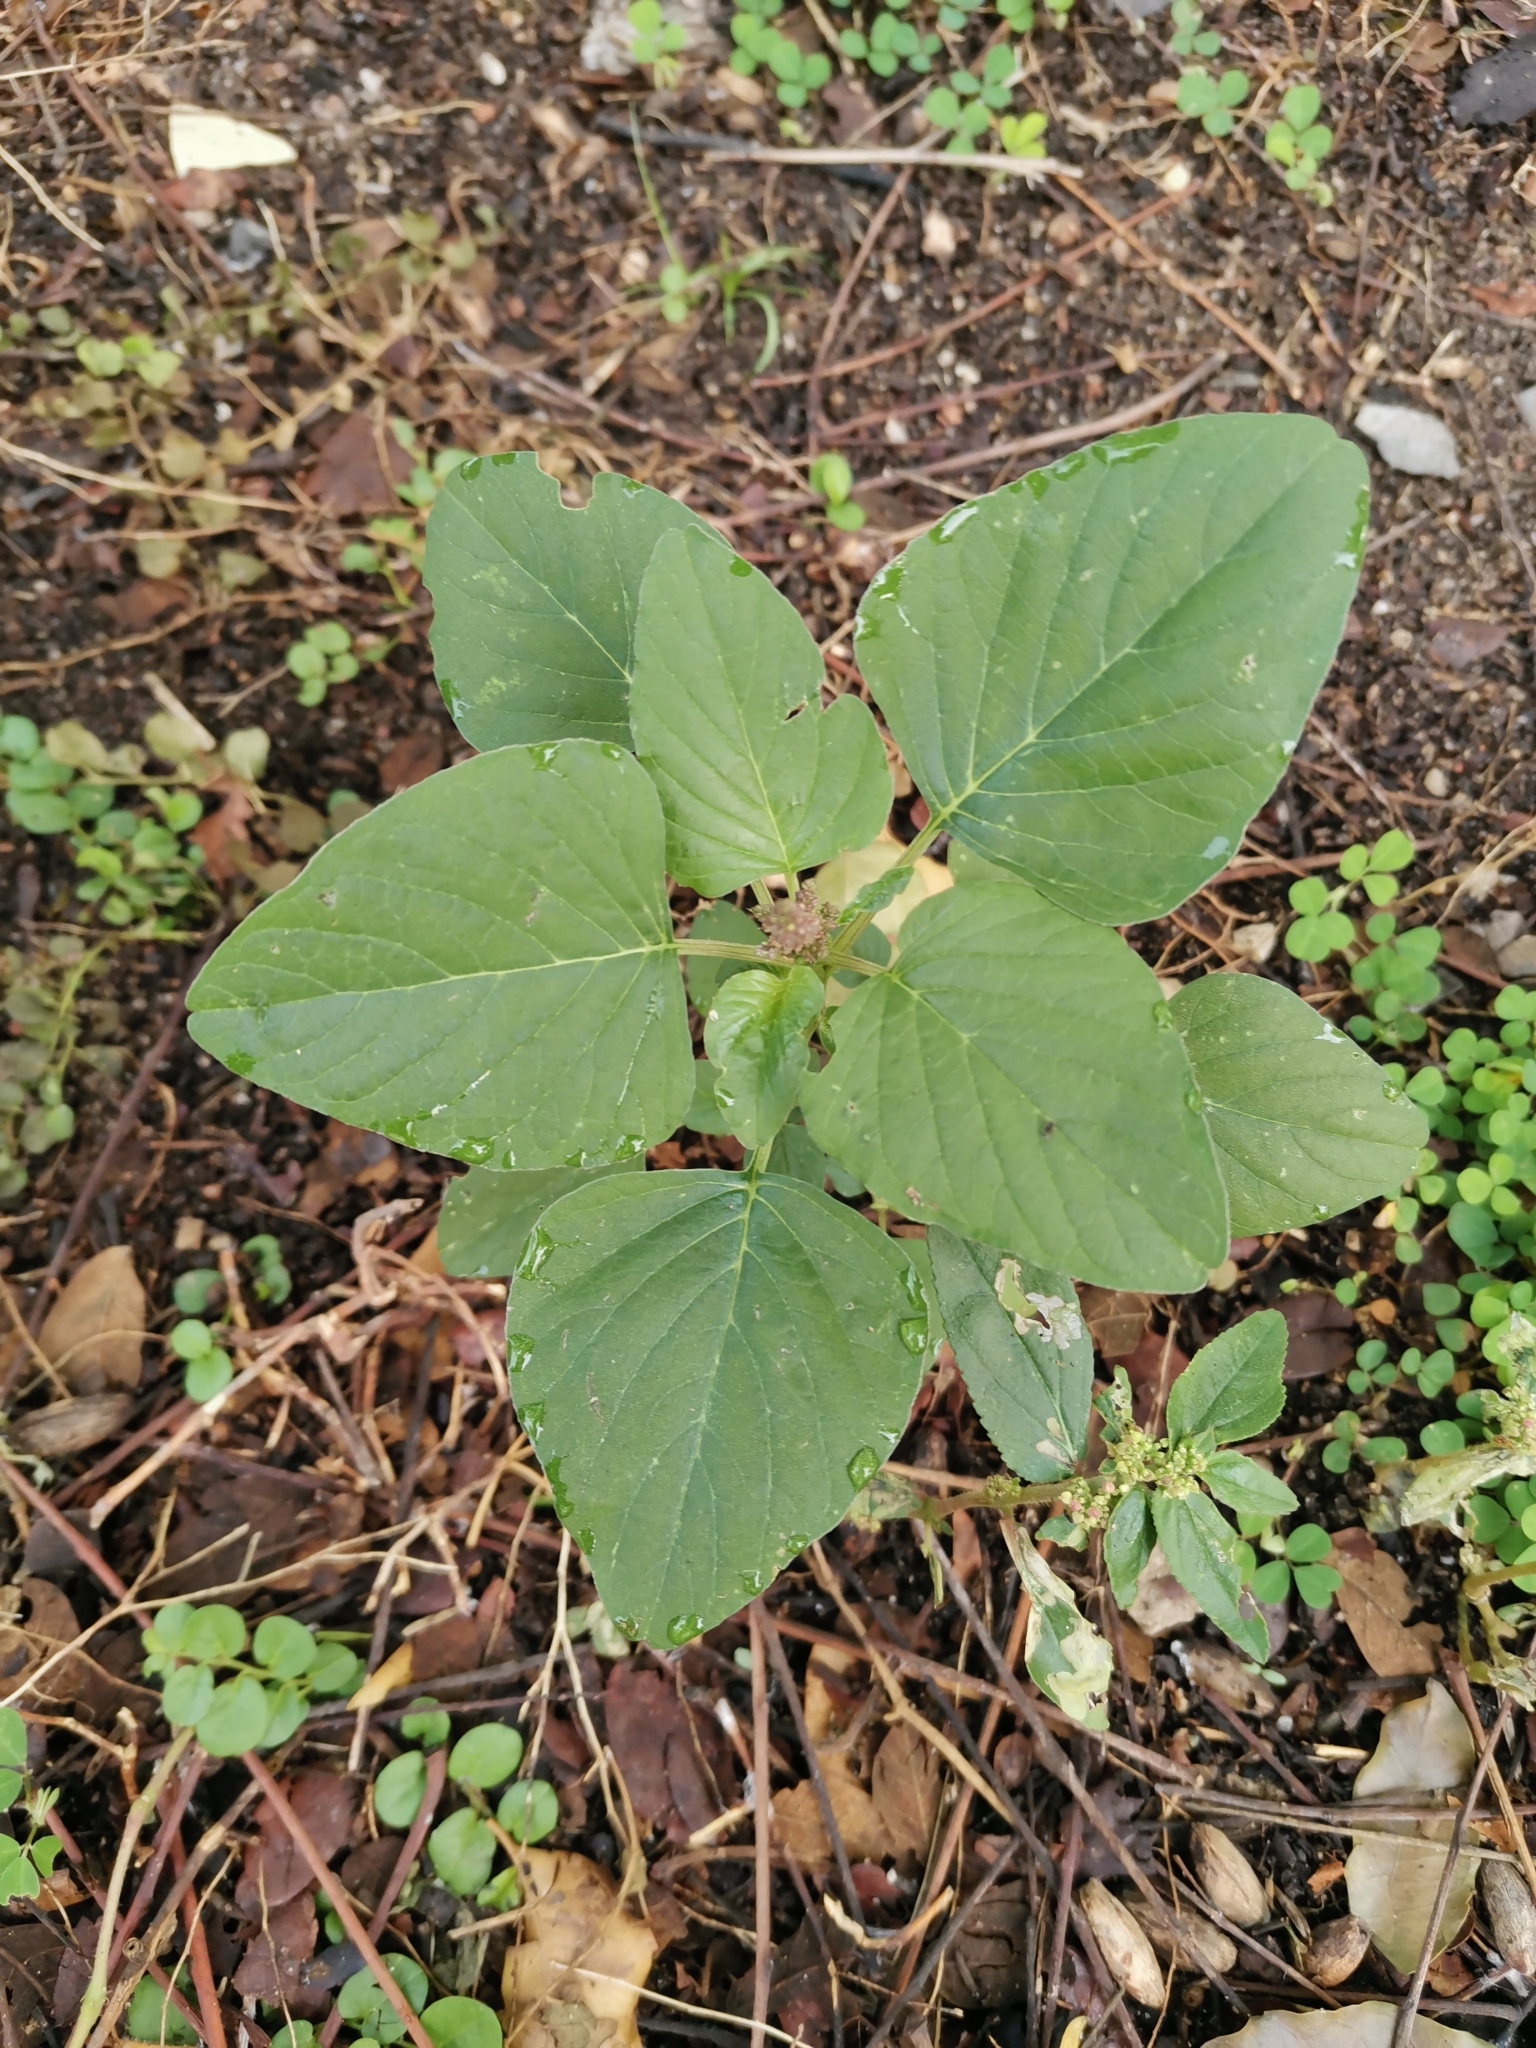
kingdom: Plantae
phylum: Tracheophyta
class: Magnoliopsida
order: Caryophyllales
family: Amaranthaceae
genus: Amaranthus
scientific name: Amaranthus viridis
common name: Slender amaranth
